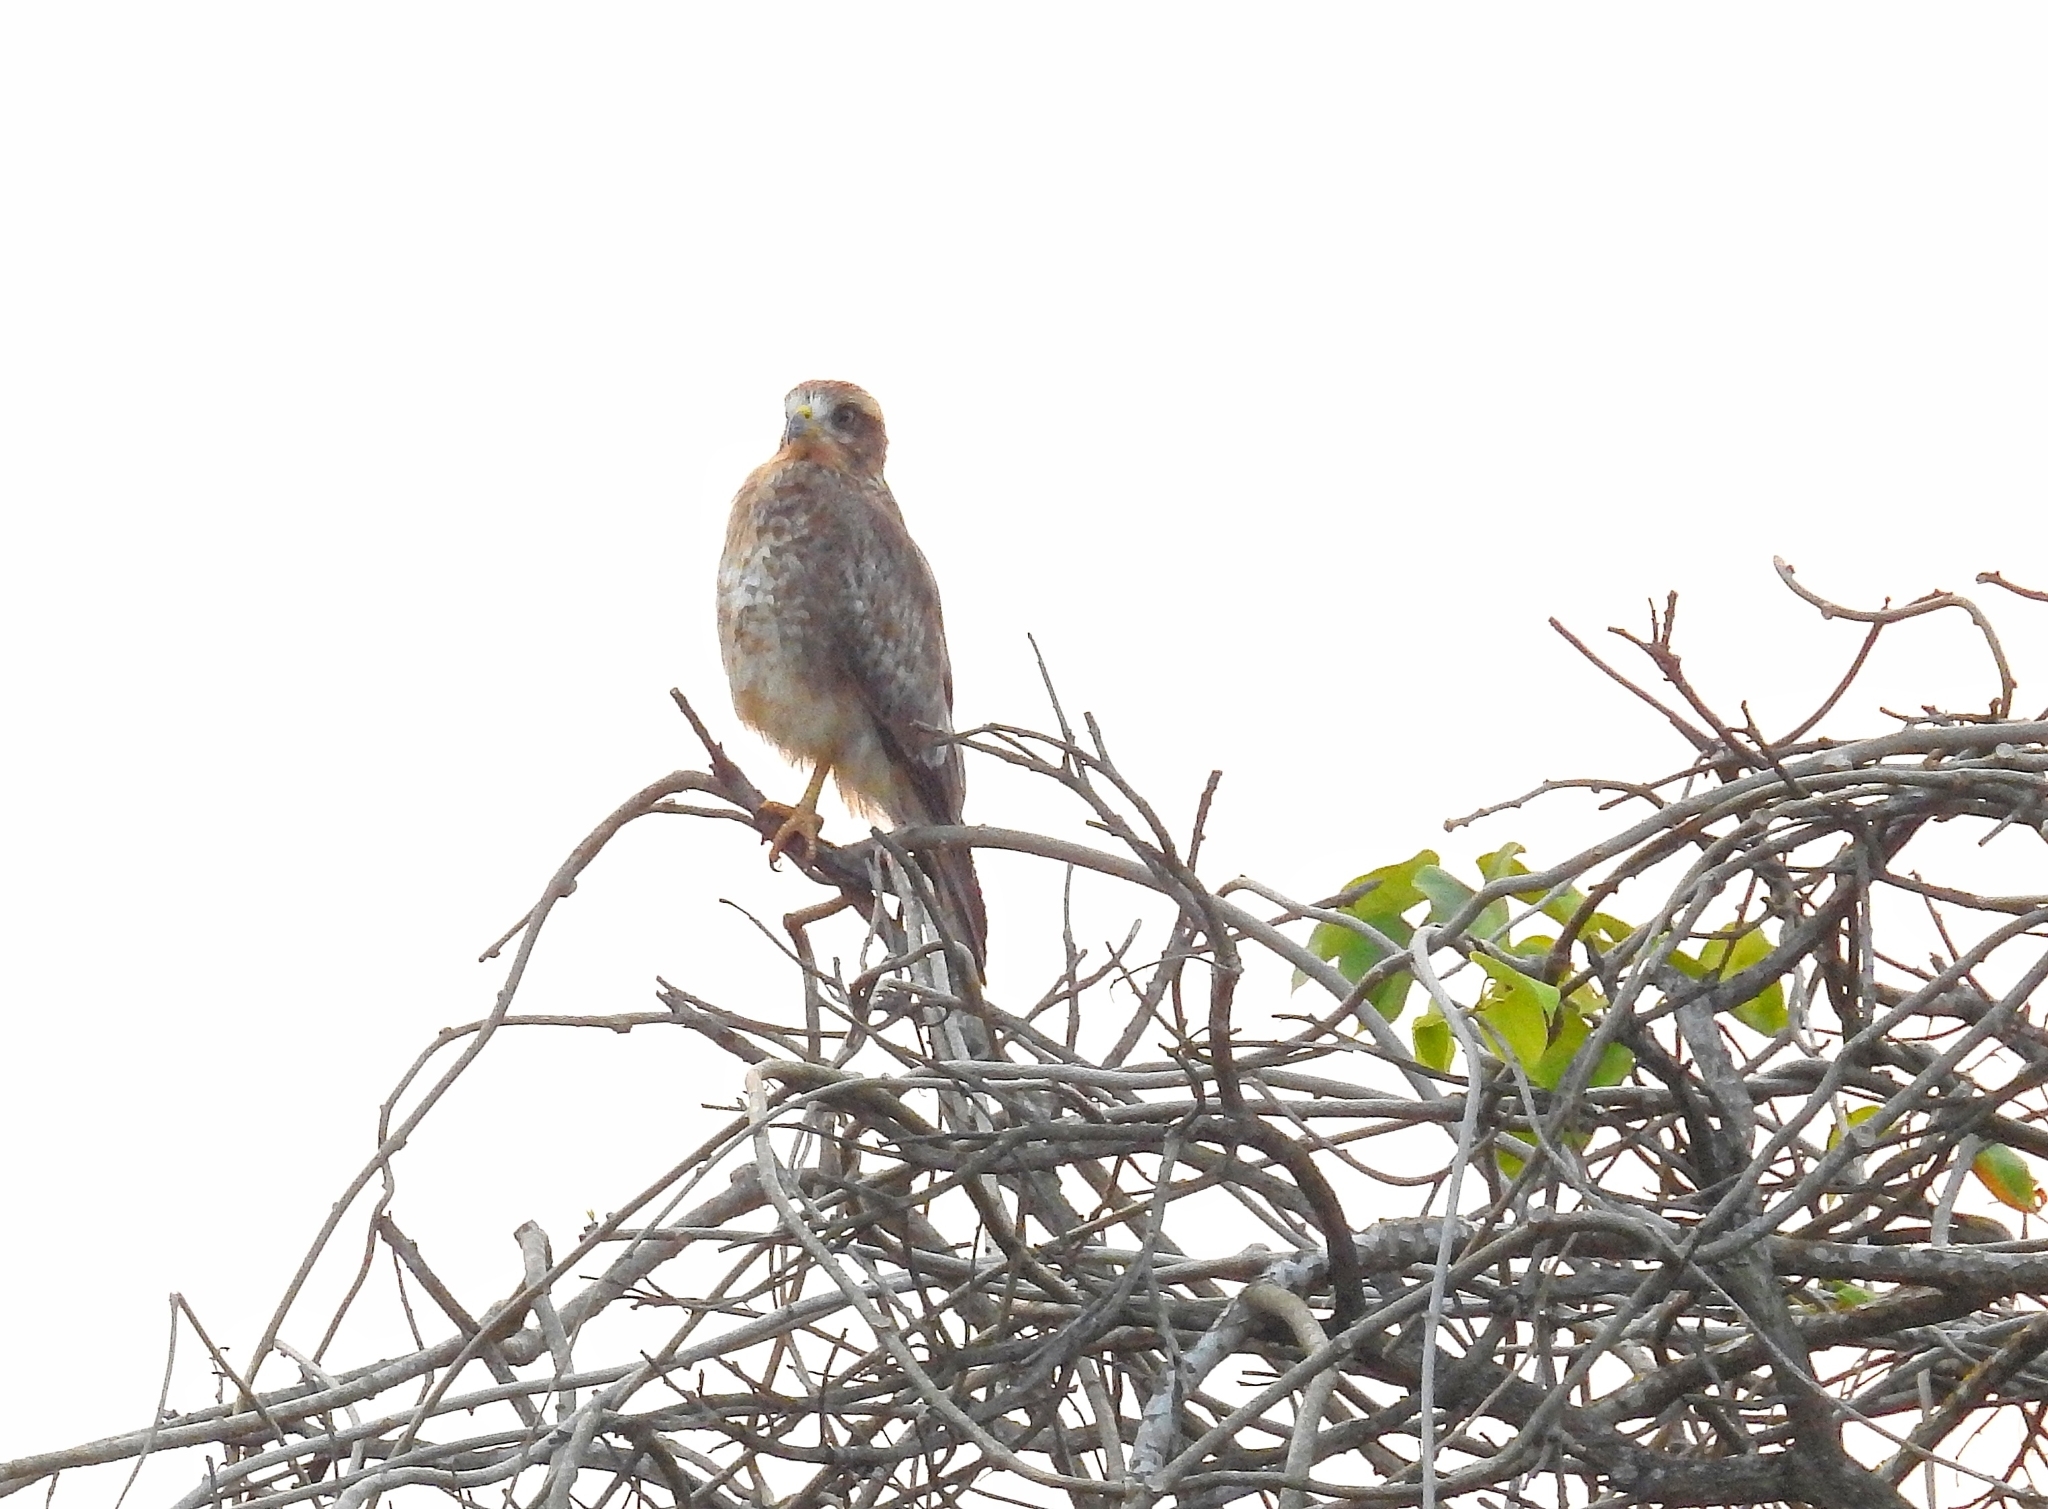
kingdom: Animalia
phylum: Chordata
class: Aves
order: Accipitriformes
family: Accipitridae
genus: Butastur
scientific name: Butastur teesa
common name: White-eyed buzzard
